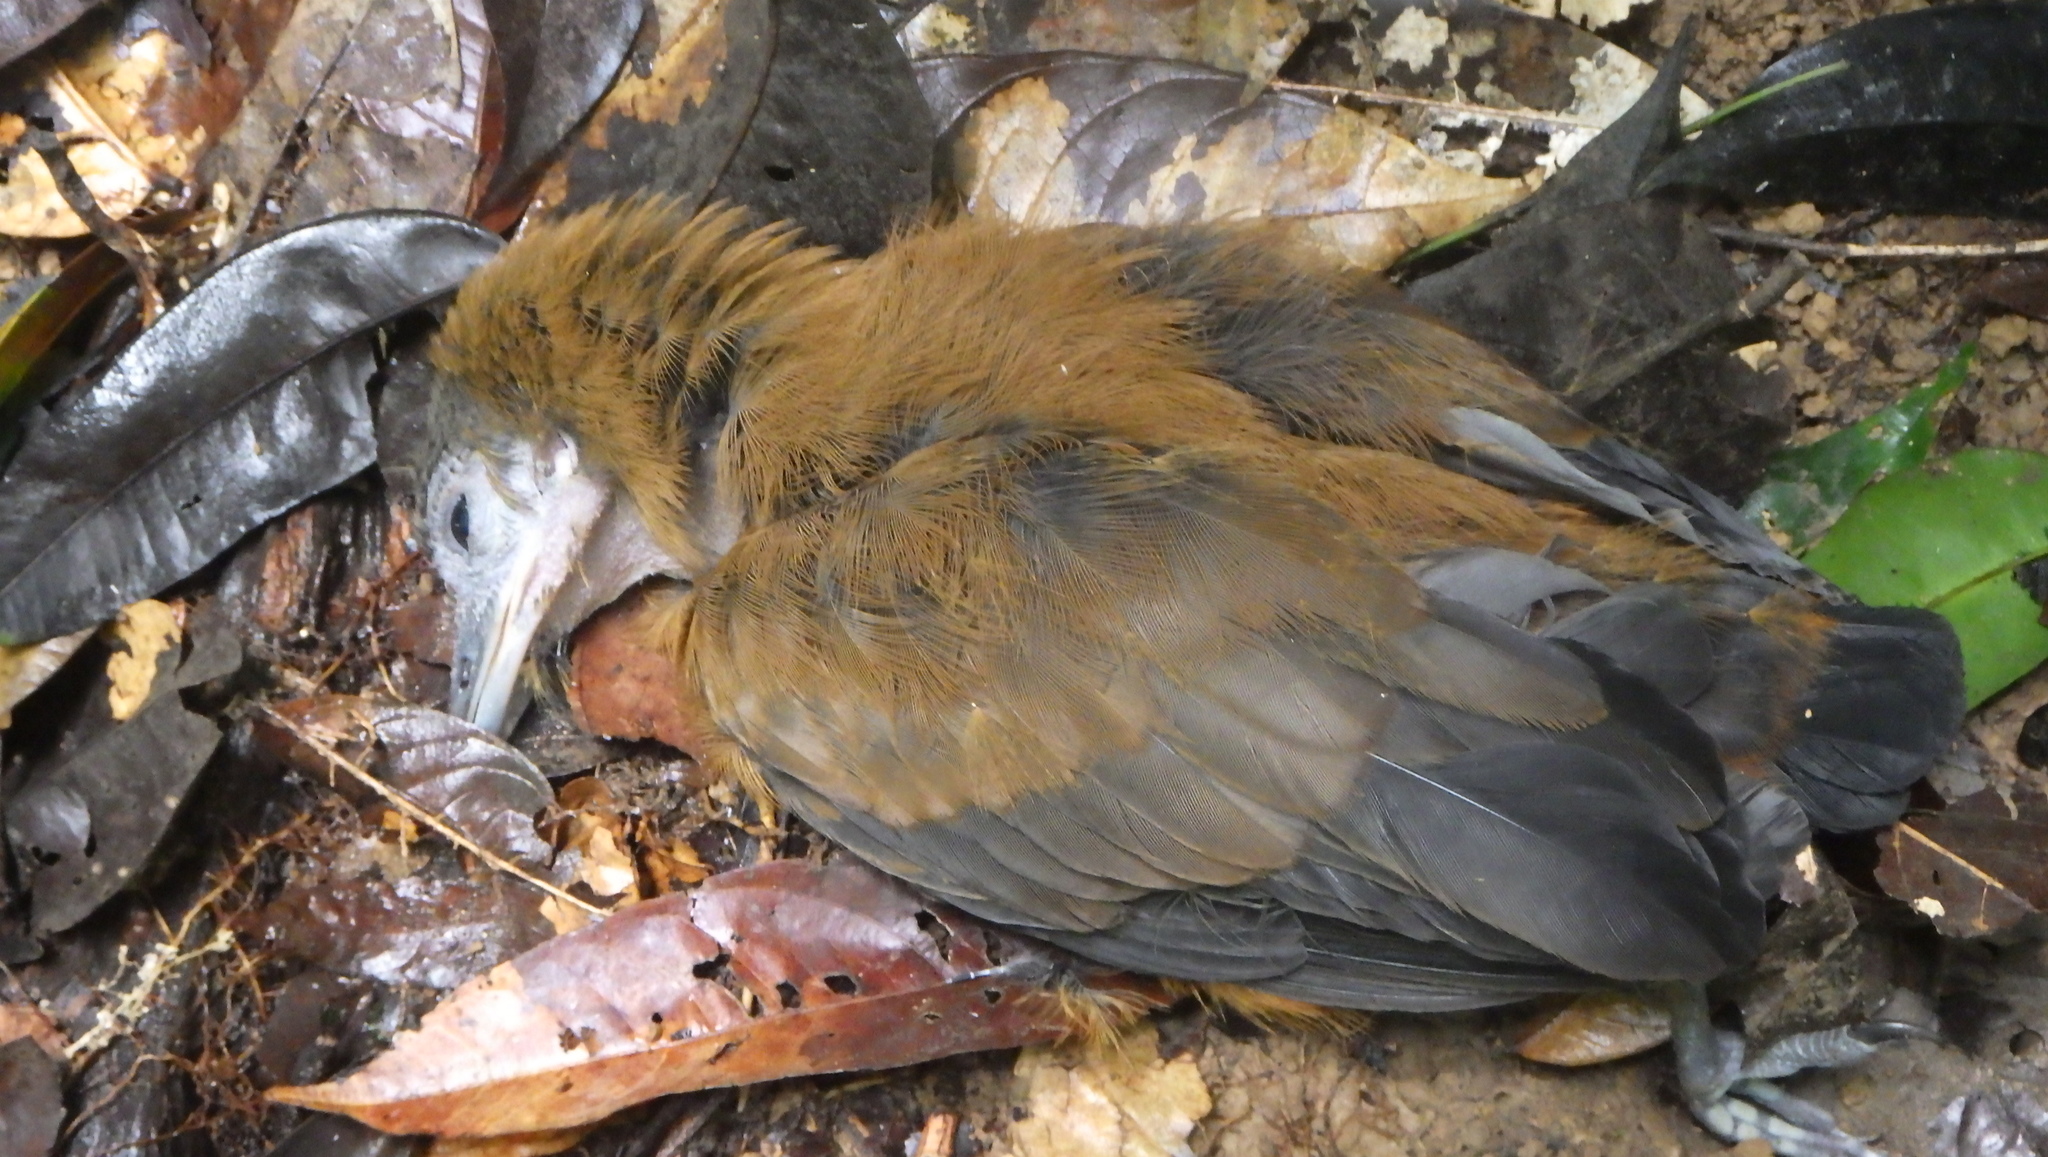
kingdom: Animalia
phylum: Chordata
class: Aves
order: Passeriformes
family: Cotingidae
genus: Perissocephalus
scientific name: Perissocephalus tricolor
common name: Capuchinbird
